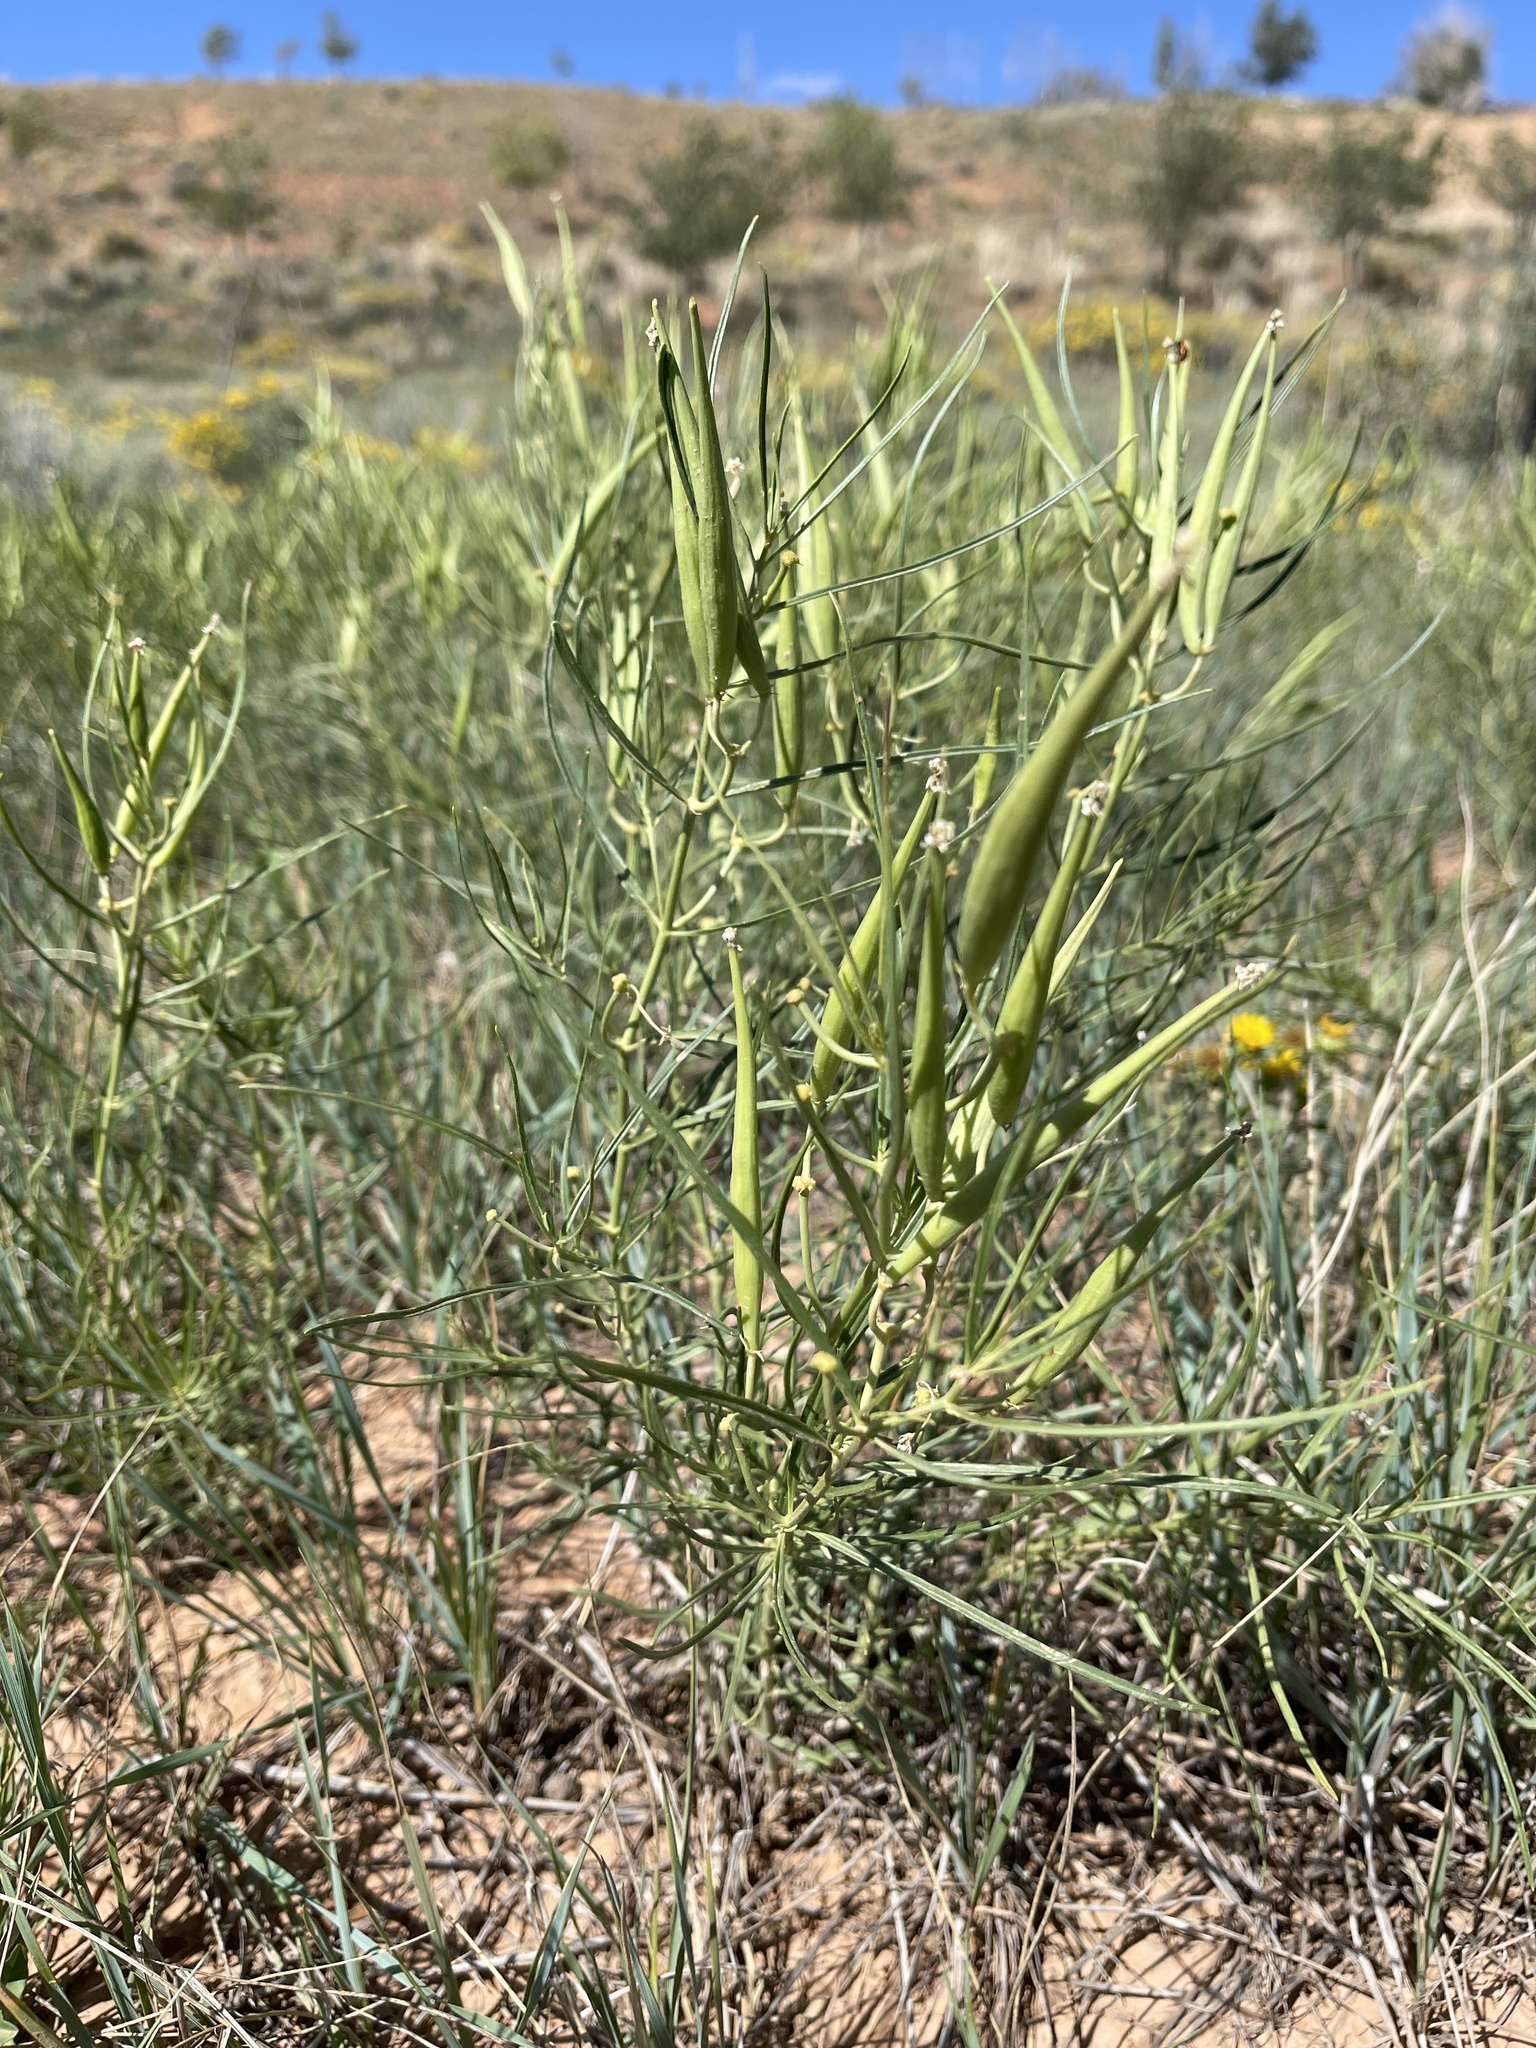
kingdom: Plantae
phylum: Tracheophyta
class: Magnoliopsida
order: Gentianales
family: Apocynaceae
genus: Asclepias
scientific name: Asclepias subverticillata
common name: Horsetail milkweed
